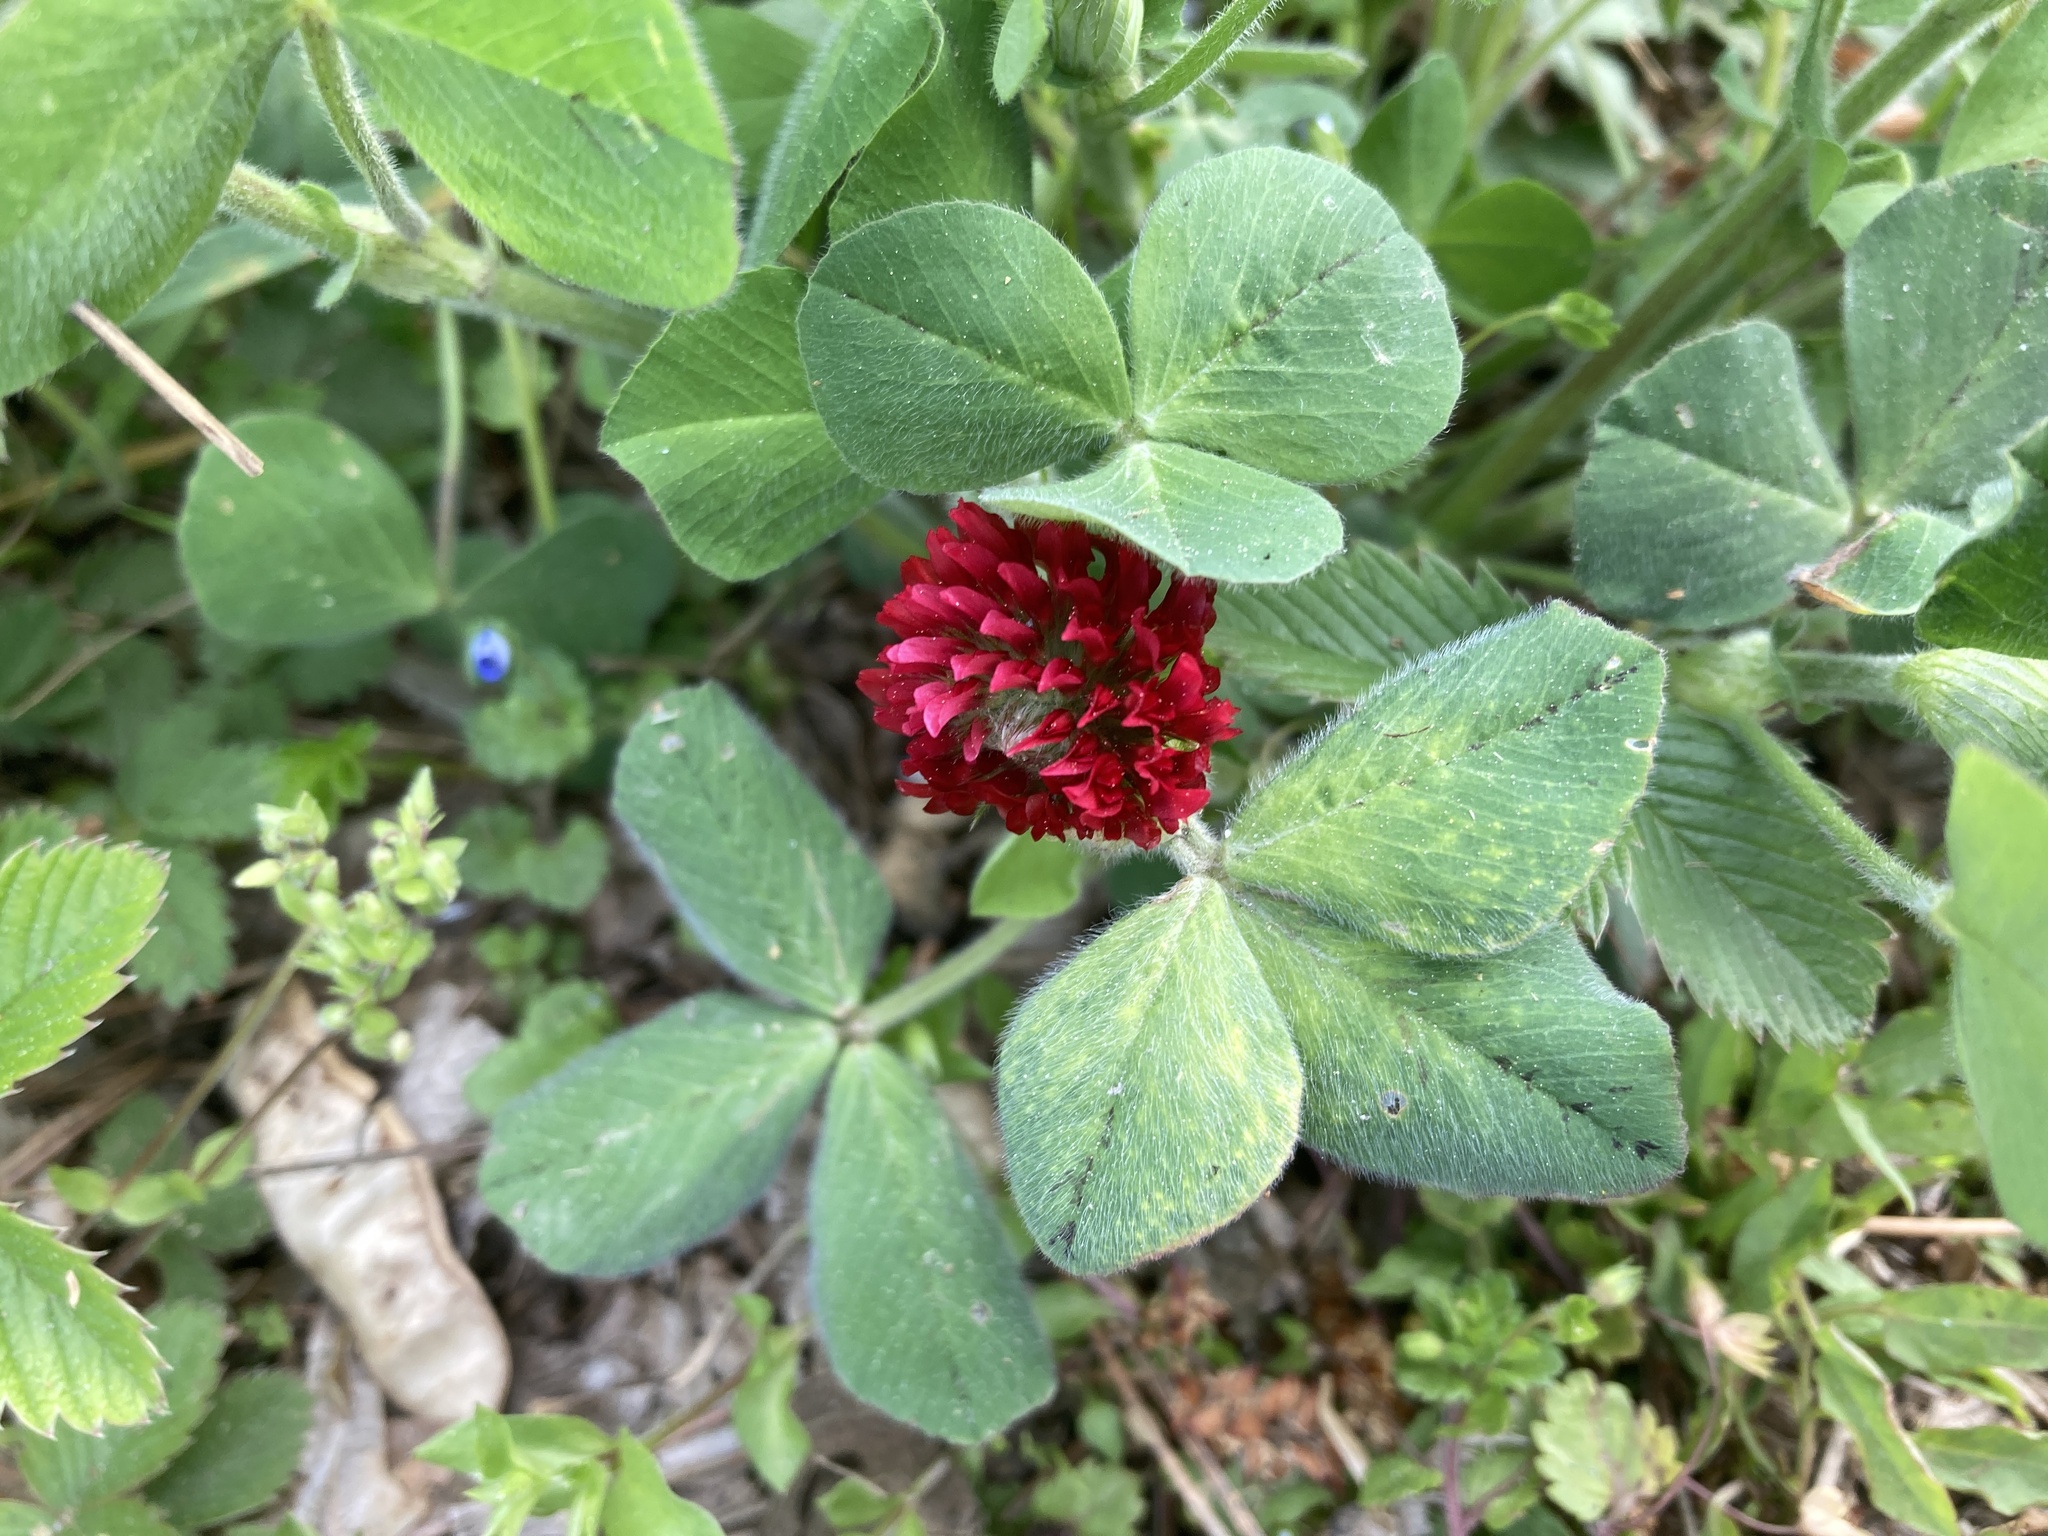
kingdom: Plantae
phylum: Tracheophyta
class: Magnoliopsida
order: Fabales
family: Fabaceae
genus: Trifolium
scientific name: Trifolium incarnatum
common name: Crimson clover
